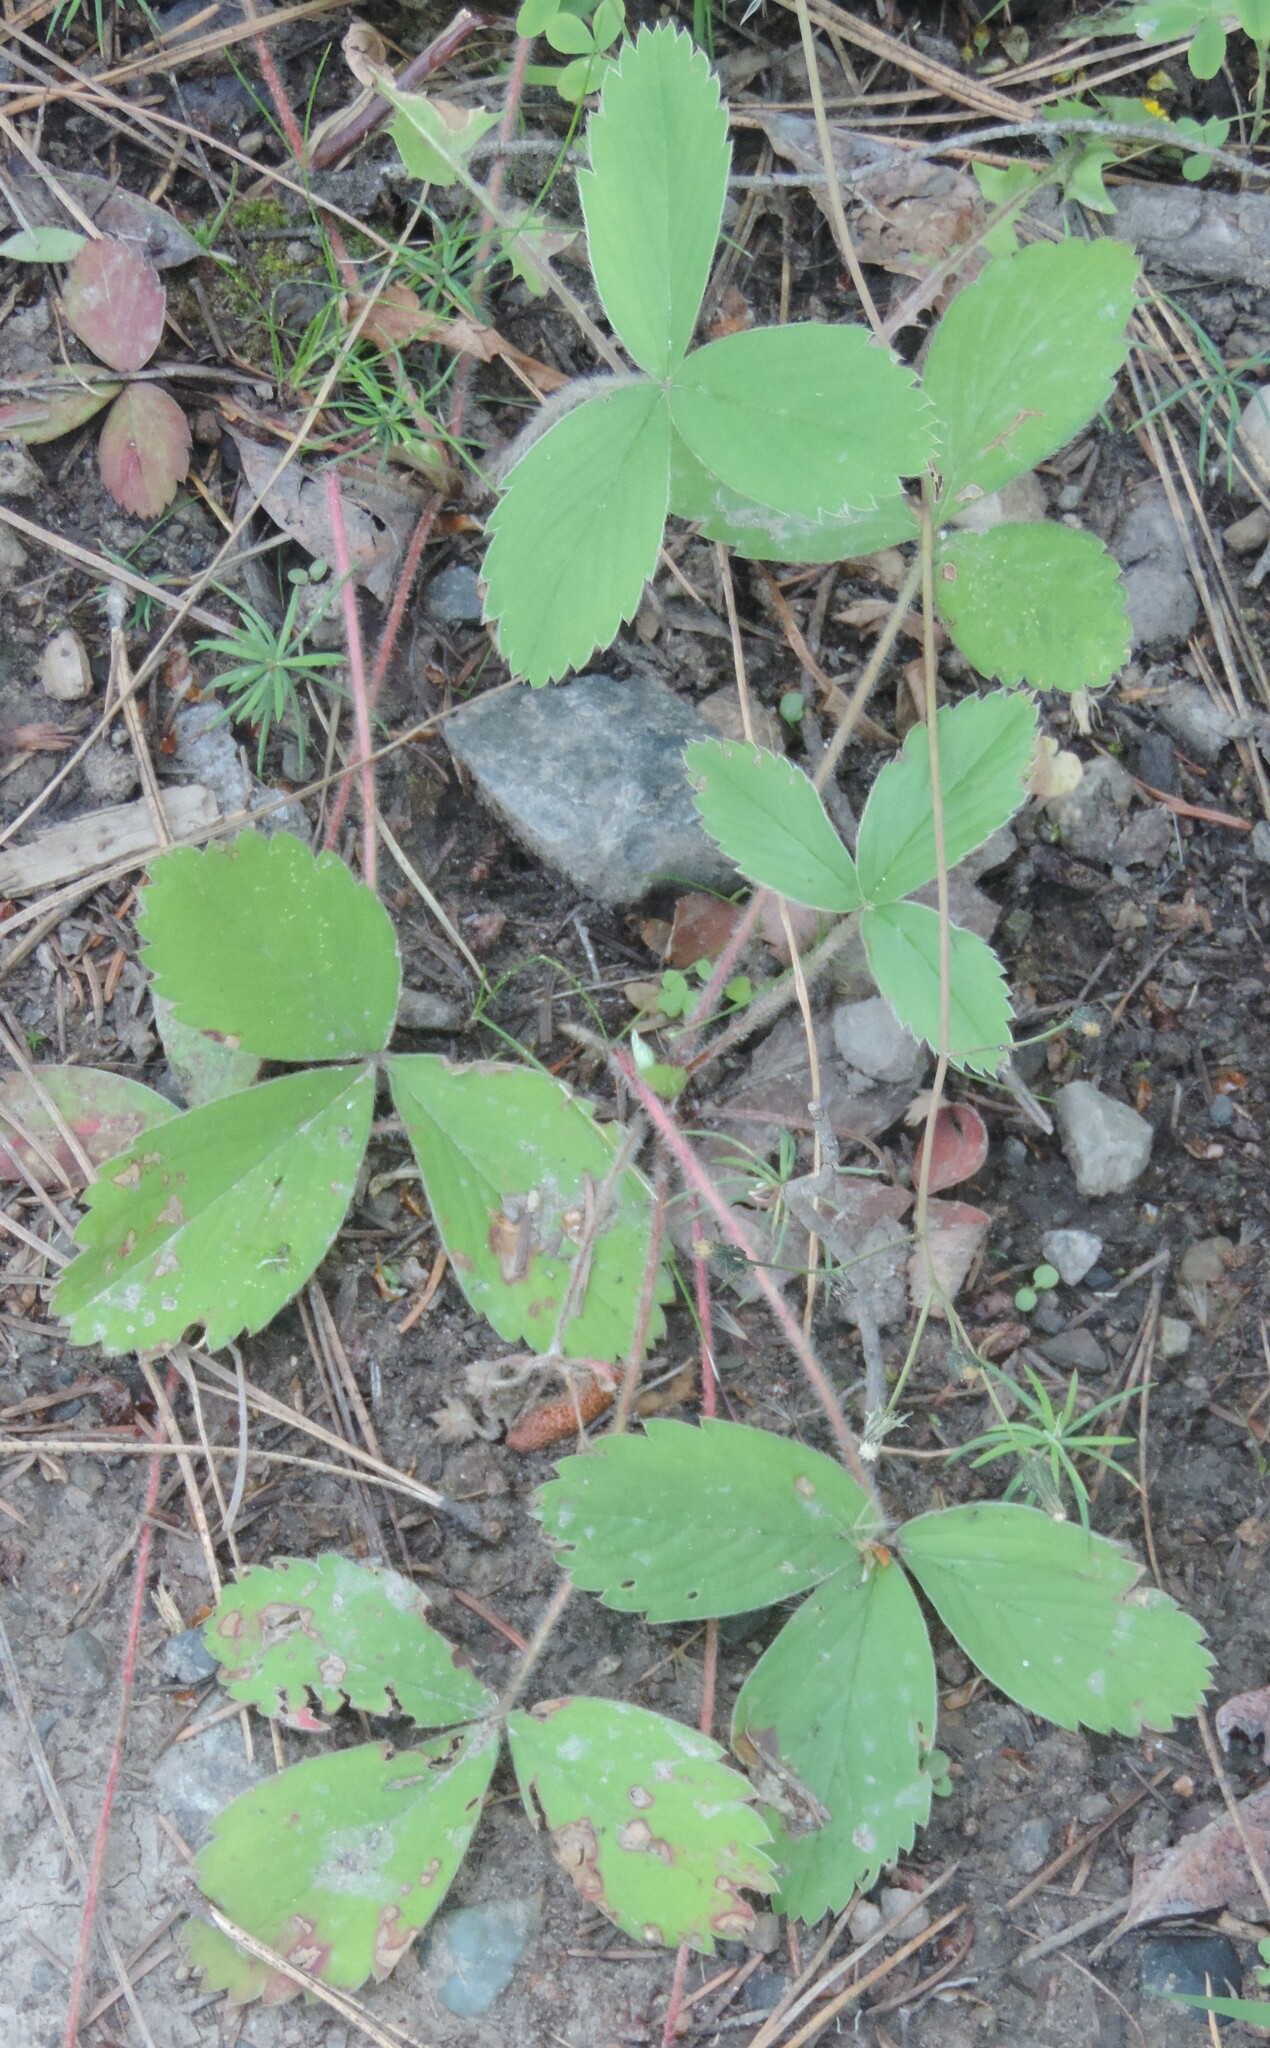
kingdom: Plantae
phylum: Tracheophyta
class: Magnoliopsida
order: Rosales
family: Rosaceae
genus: Fragaria
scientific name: Fragaria virginiana
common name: Thickleaved wild strawberry
